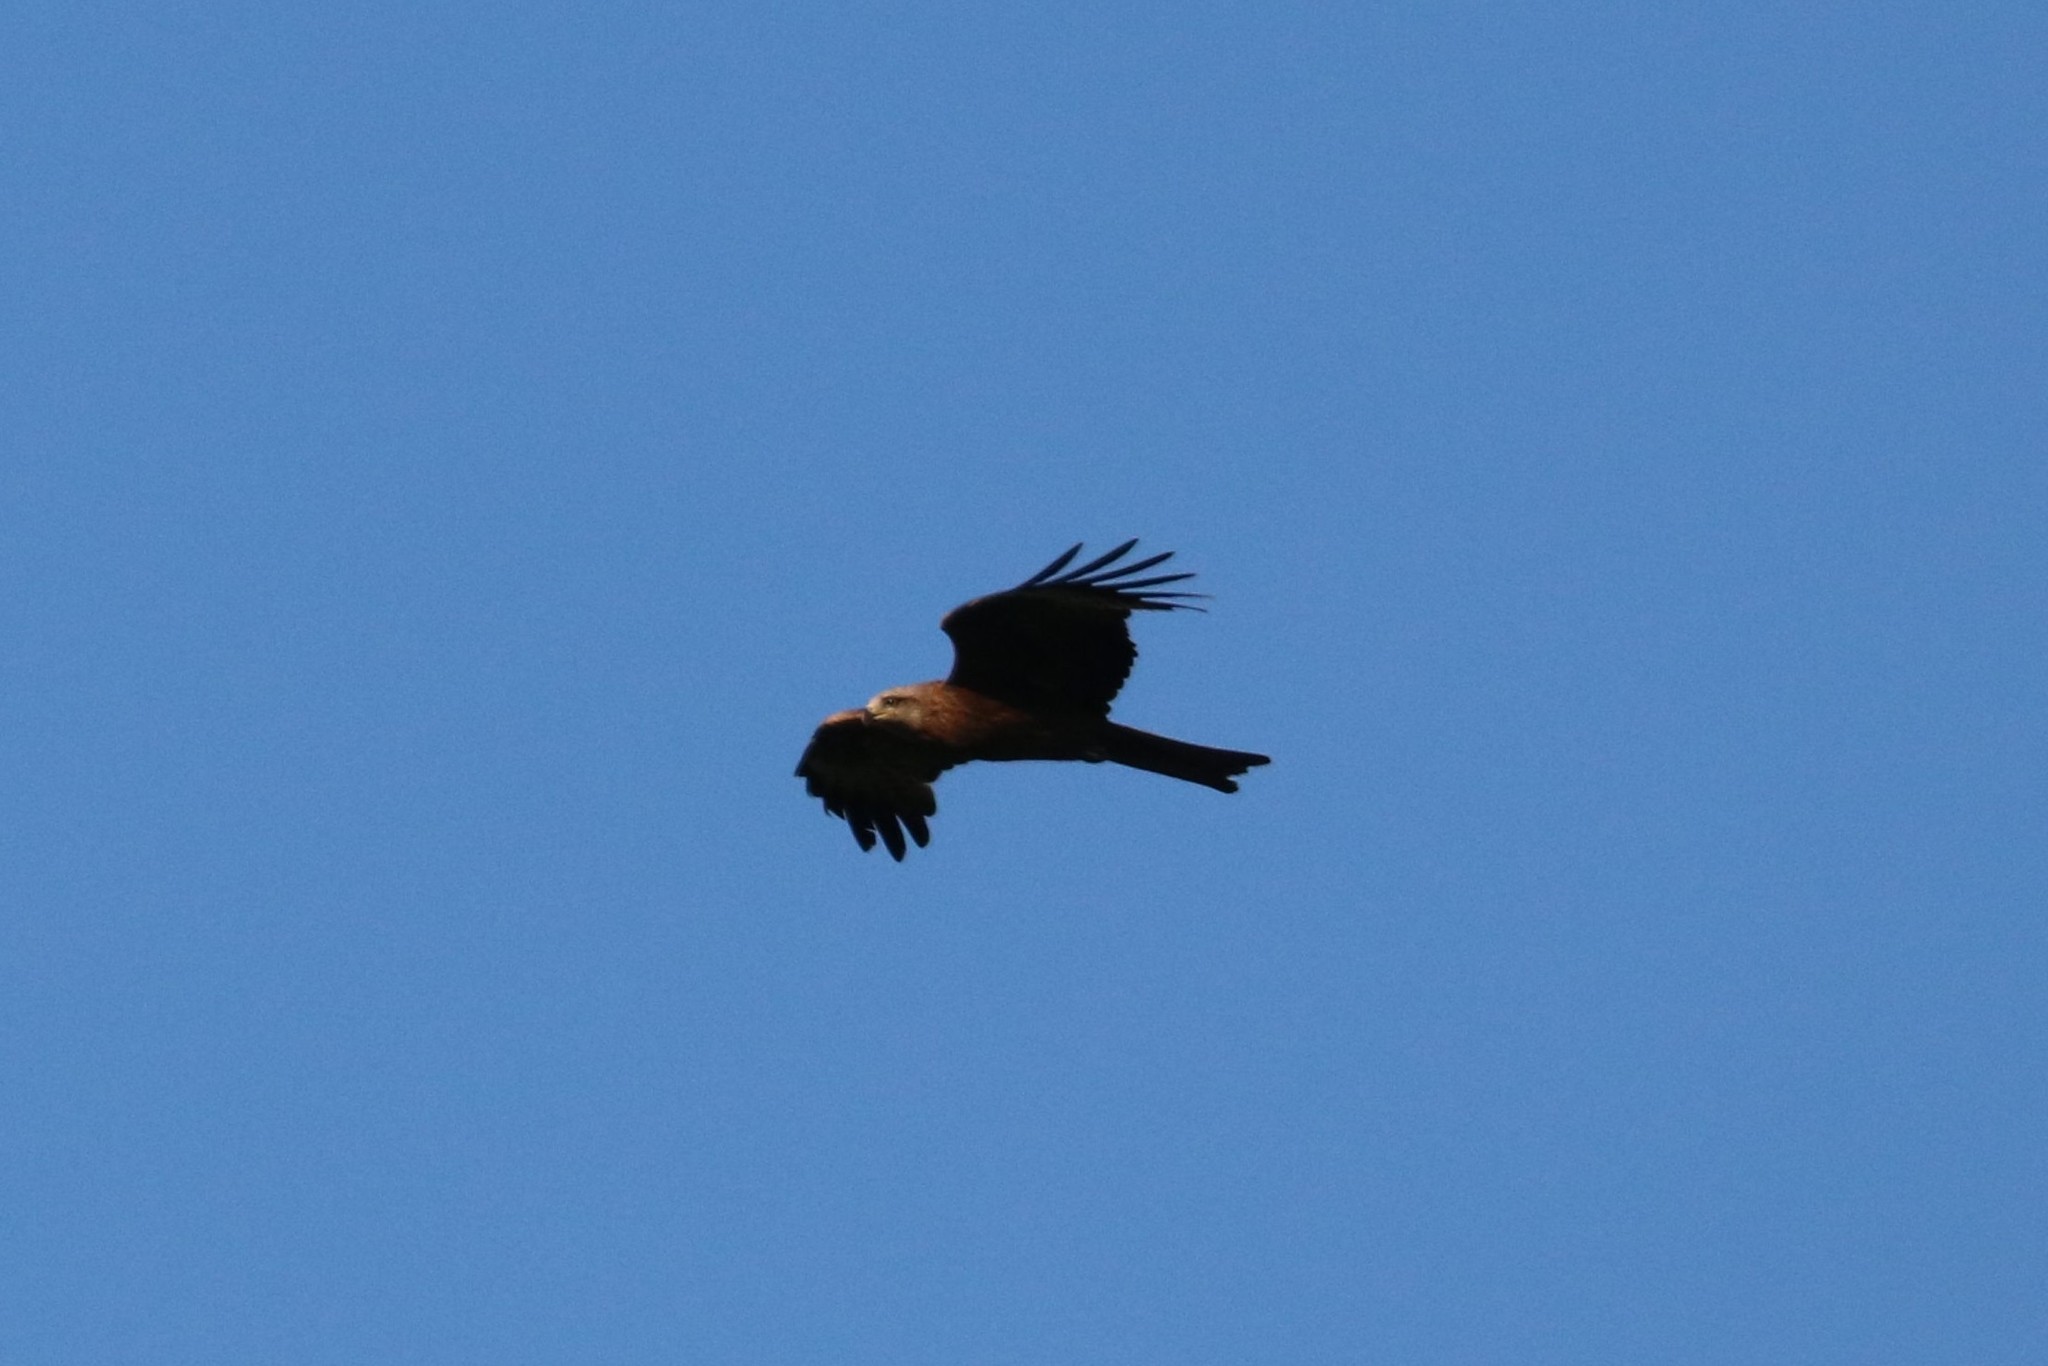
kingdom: Animalia
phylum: Chordata
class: Aves
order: Accipitriformes
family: Accipitridae
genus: Milvus
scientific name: Milvus migrans
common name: Black kite
